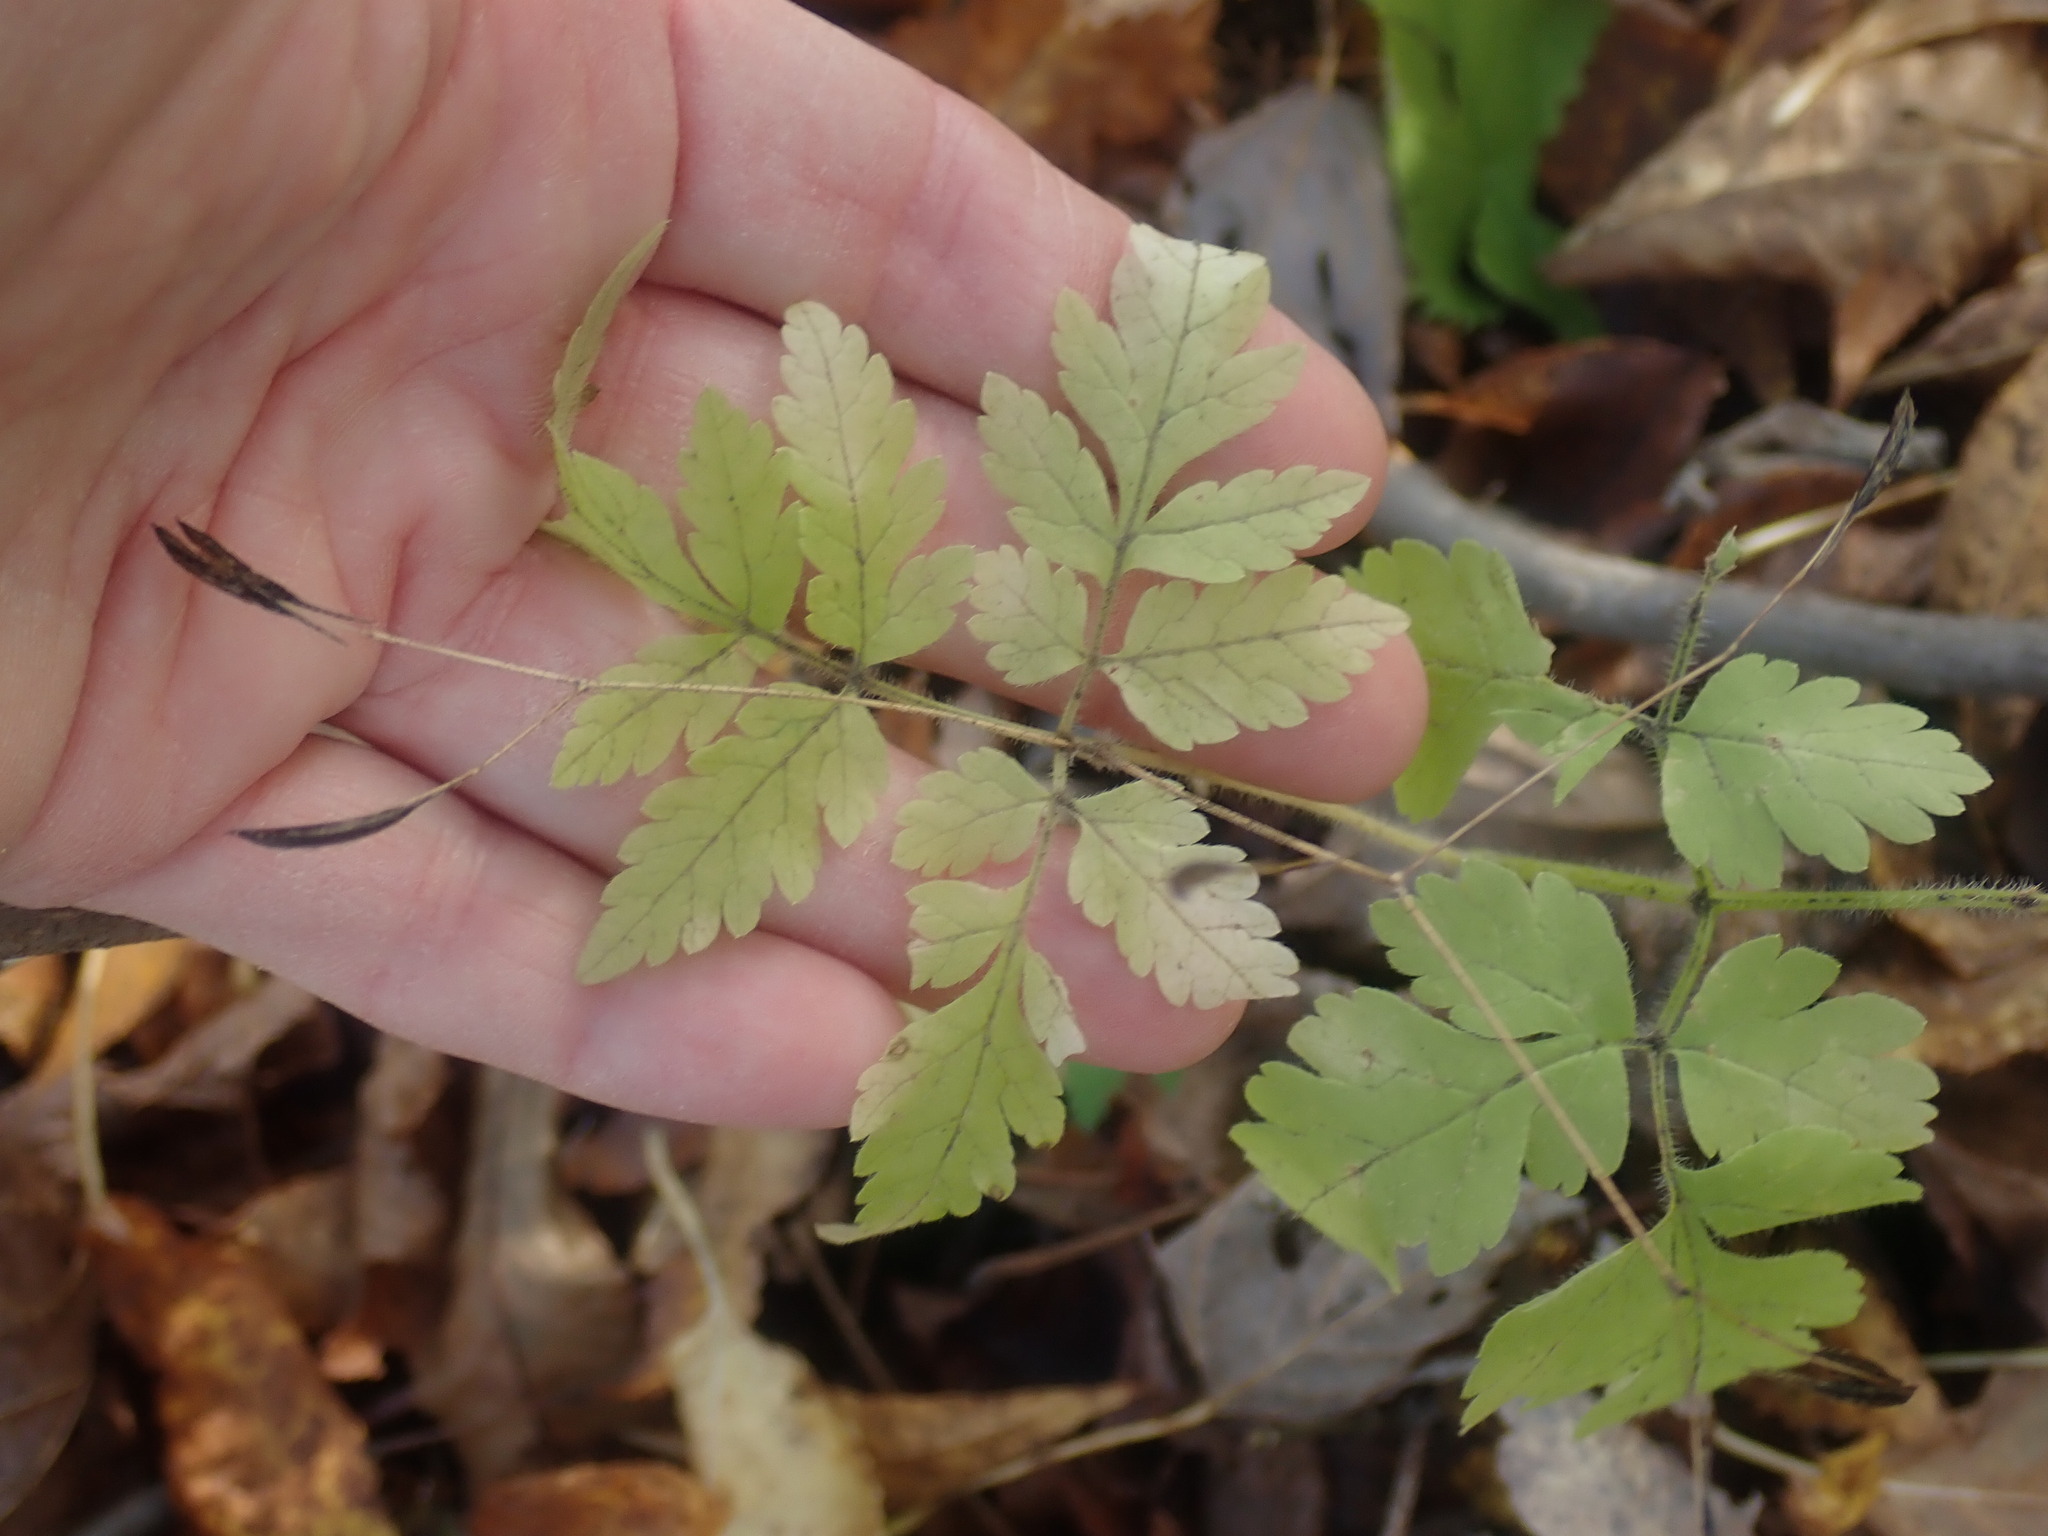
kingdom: Plantae
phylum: Tracheophyta
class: Magnoliopsida
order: Apiales
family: Apiaceae
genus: Osmorhiza
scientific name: Osmorhiza
